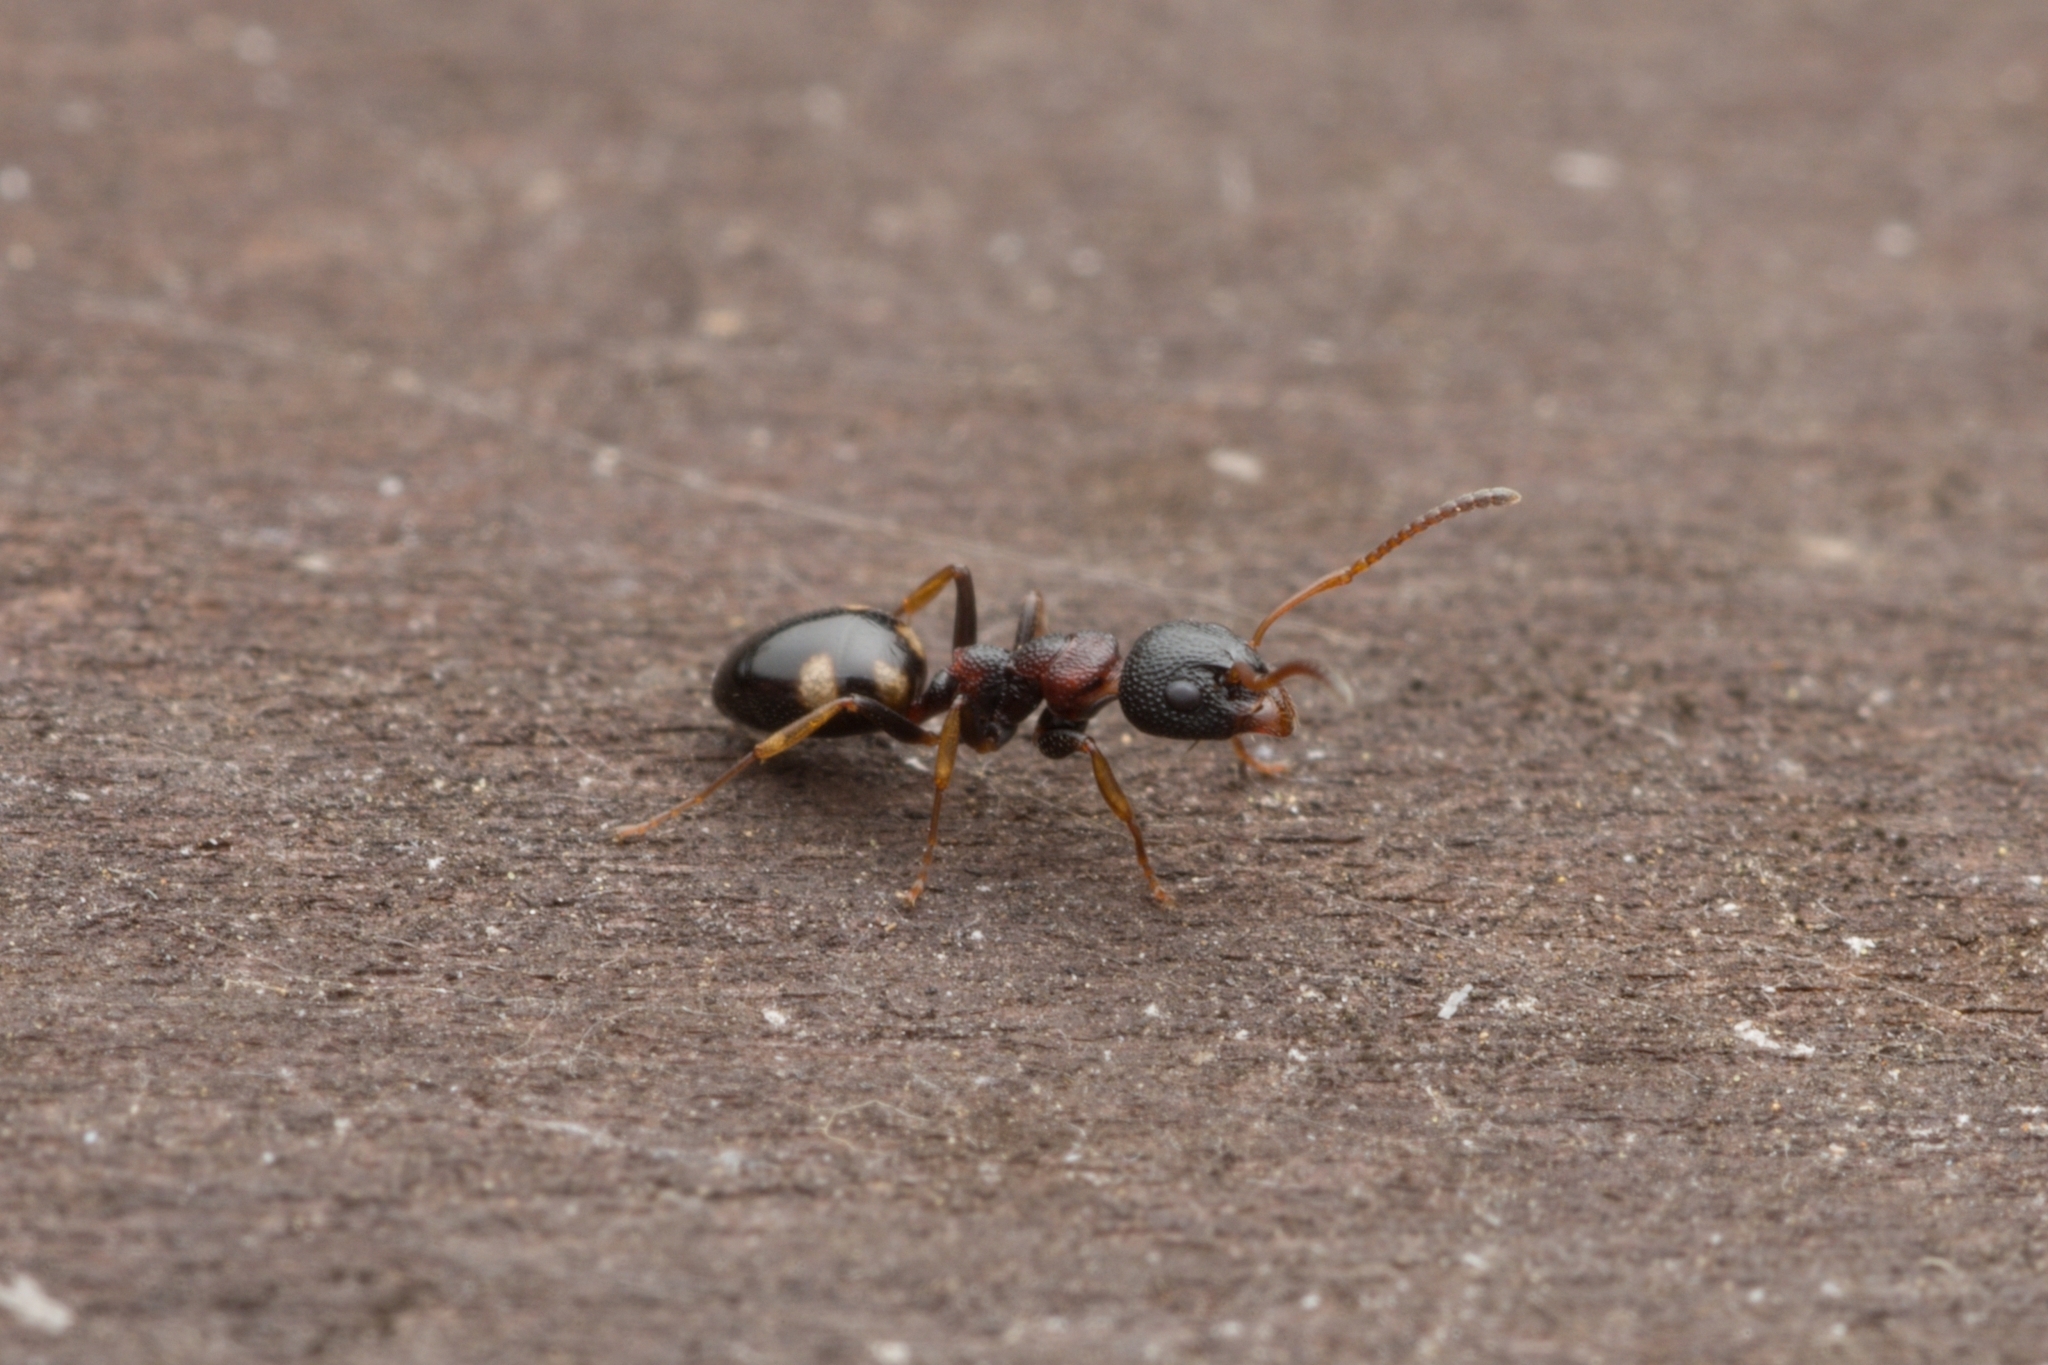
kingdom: Animalia
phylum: Arthropoda
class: Insecta
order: Hymenoptera
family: Formicidae
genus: Dolichoderus
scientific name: Dolichoderus sibiricus
